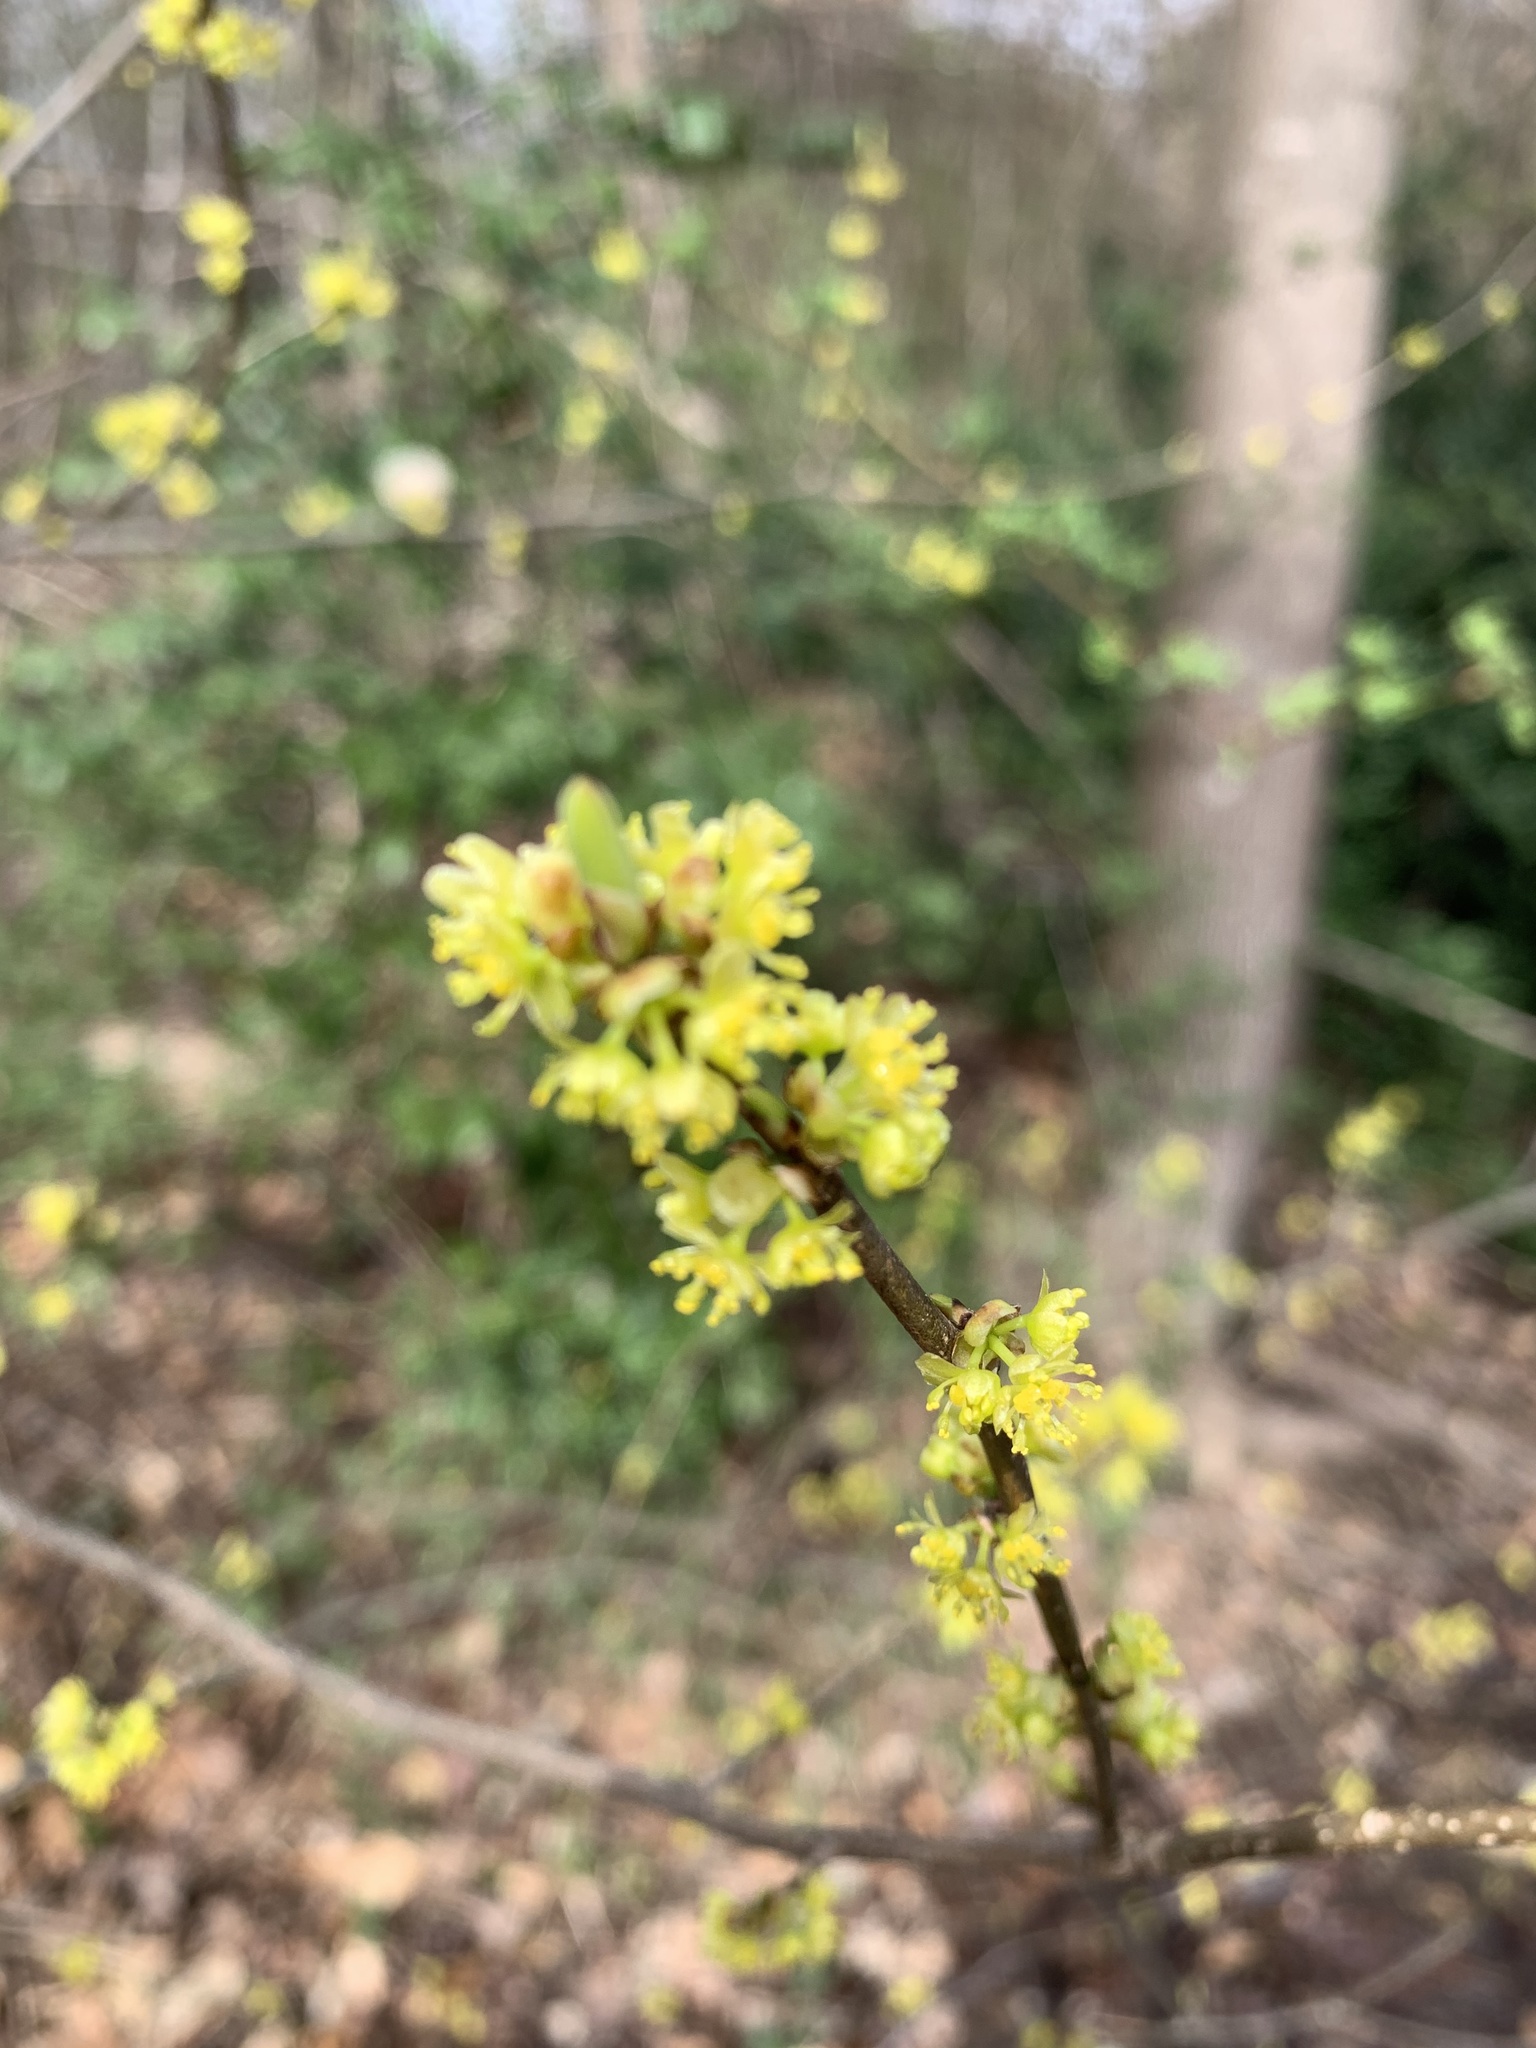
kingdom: Plantae
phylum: Tracheophyta
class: Magnoliopsida
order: Laurales
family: Lauraceae
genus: Lindera
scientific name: Lindera benzoin
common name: Spicebush
